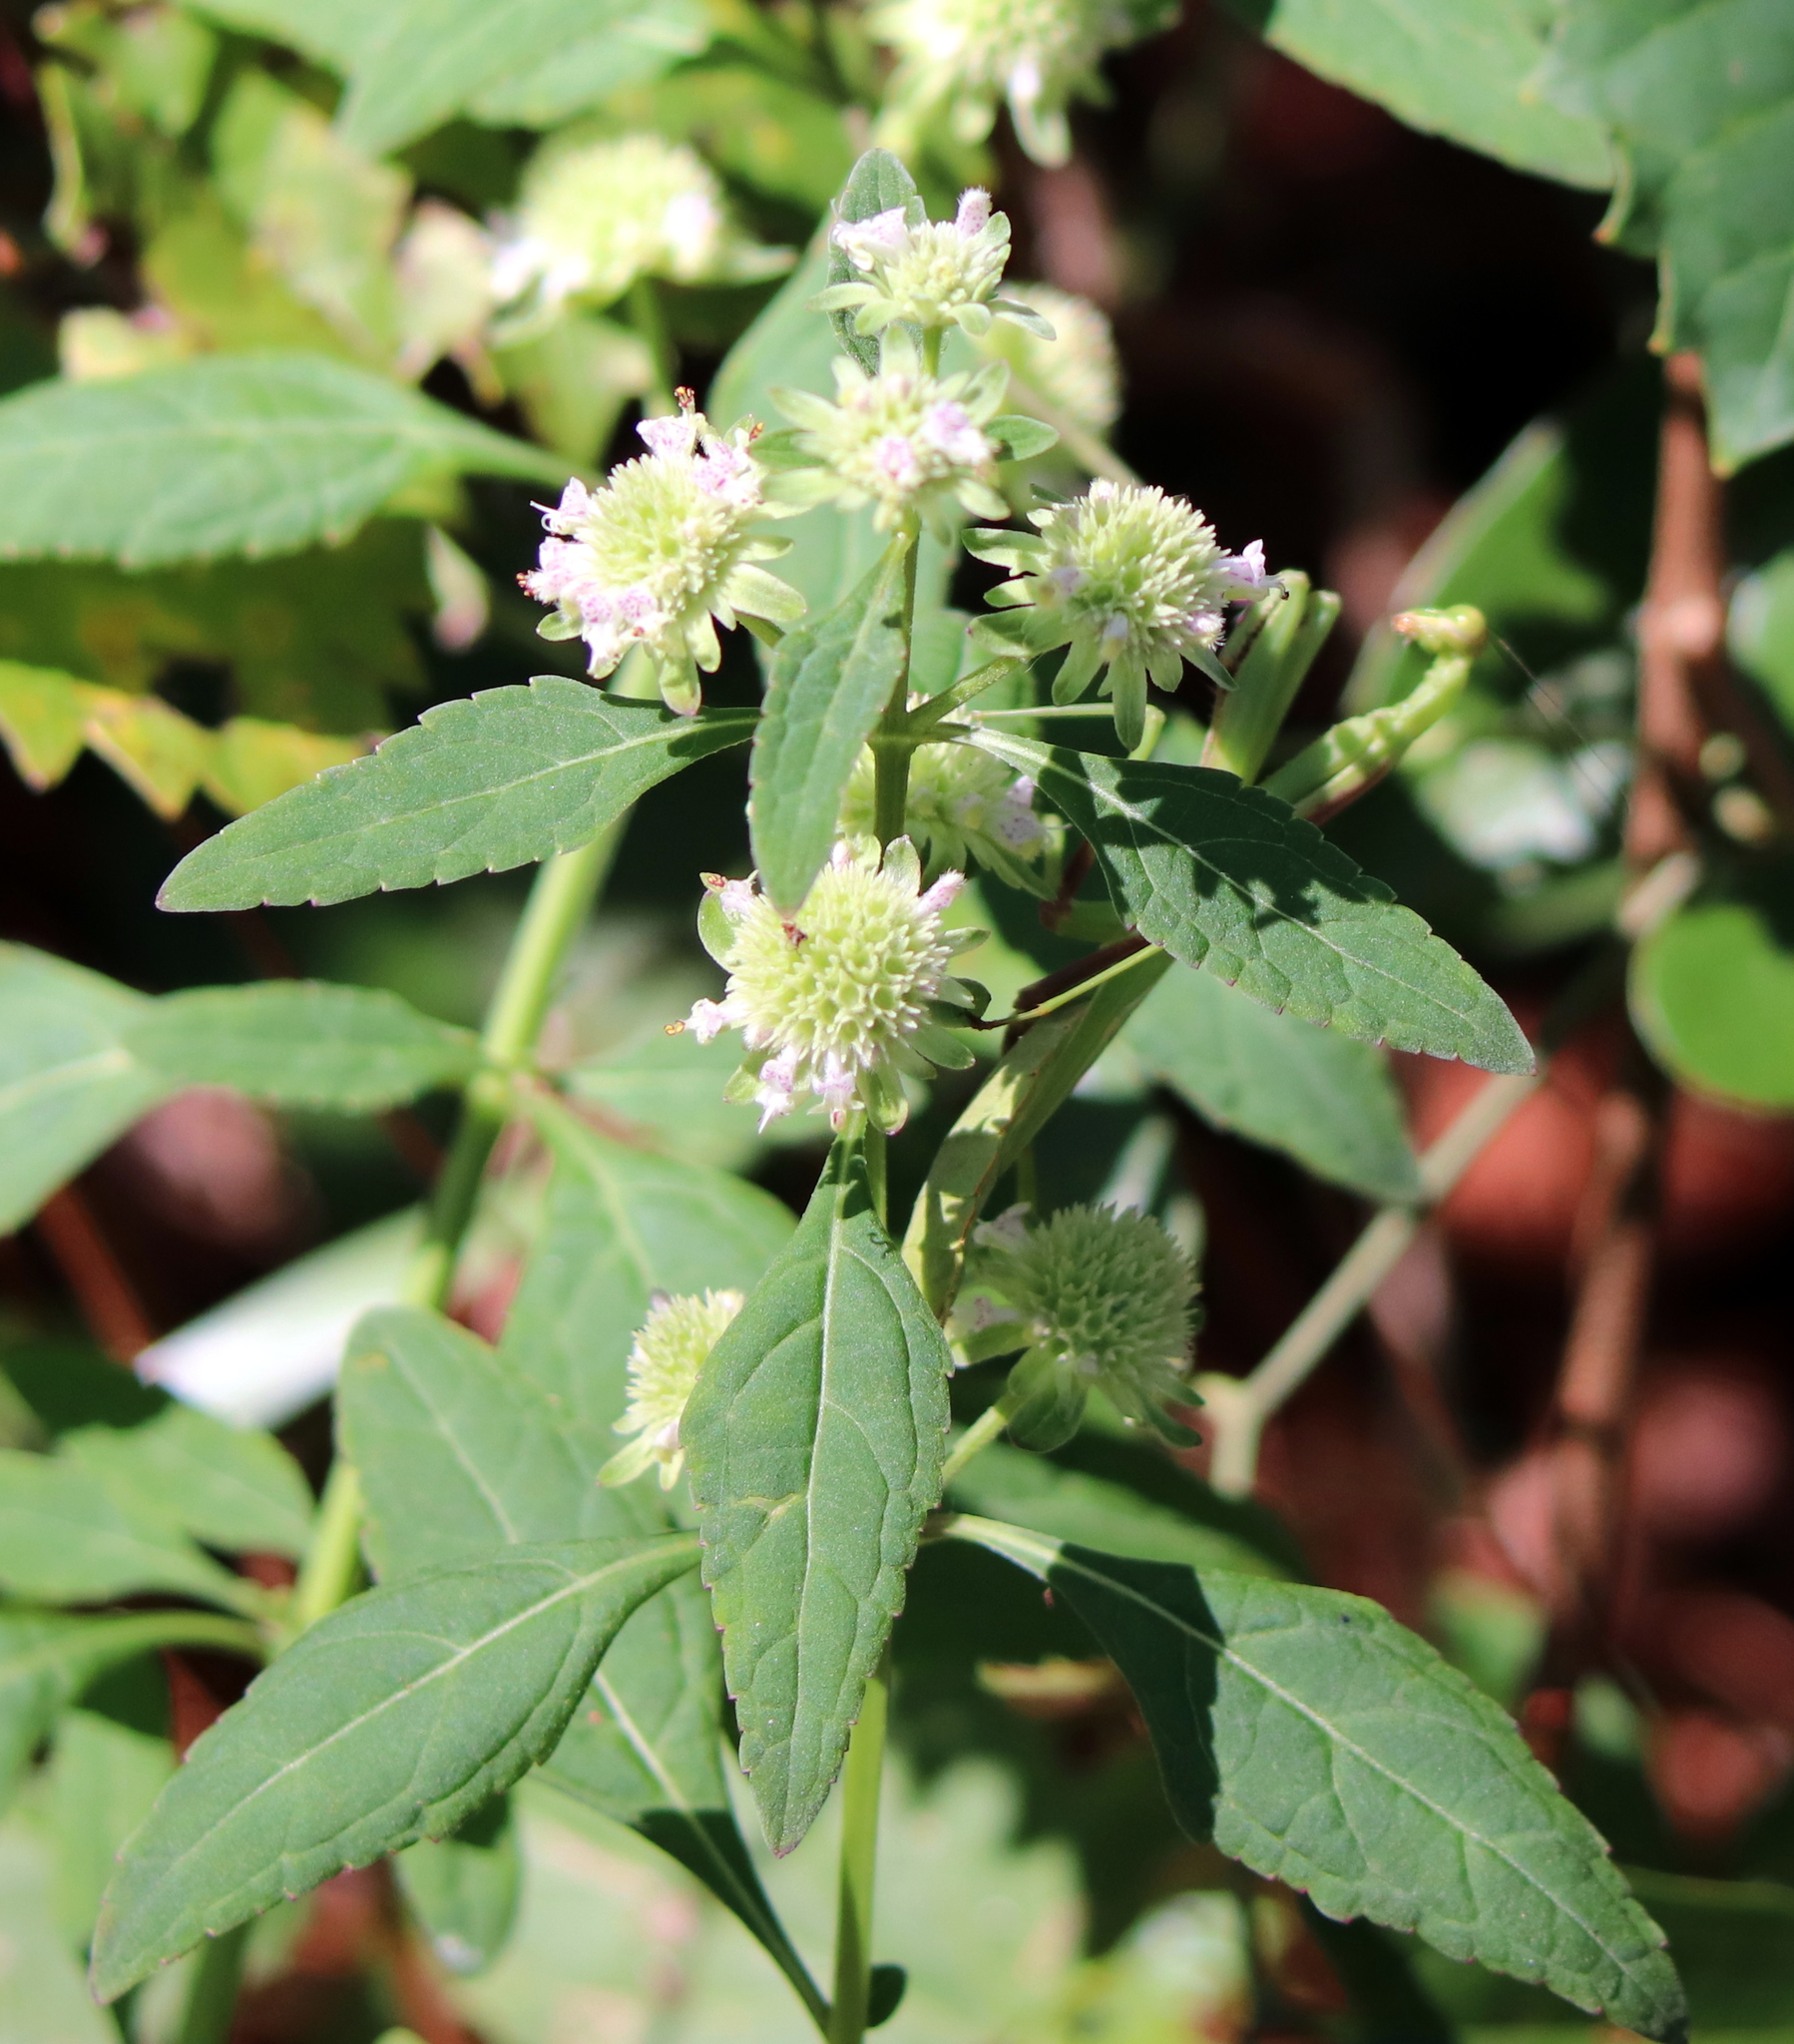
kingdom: Plantae
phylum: Tracheophyta
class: Magnoliopsida
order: Lamiales
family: Lamiaceae
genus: Hyptis
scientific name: Hyptis alata
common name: Cluster bush-mint
